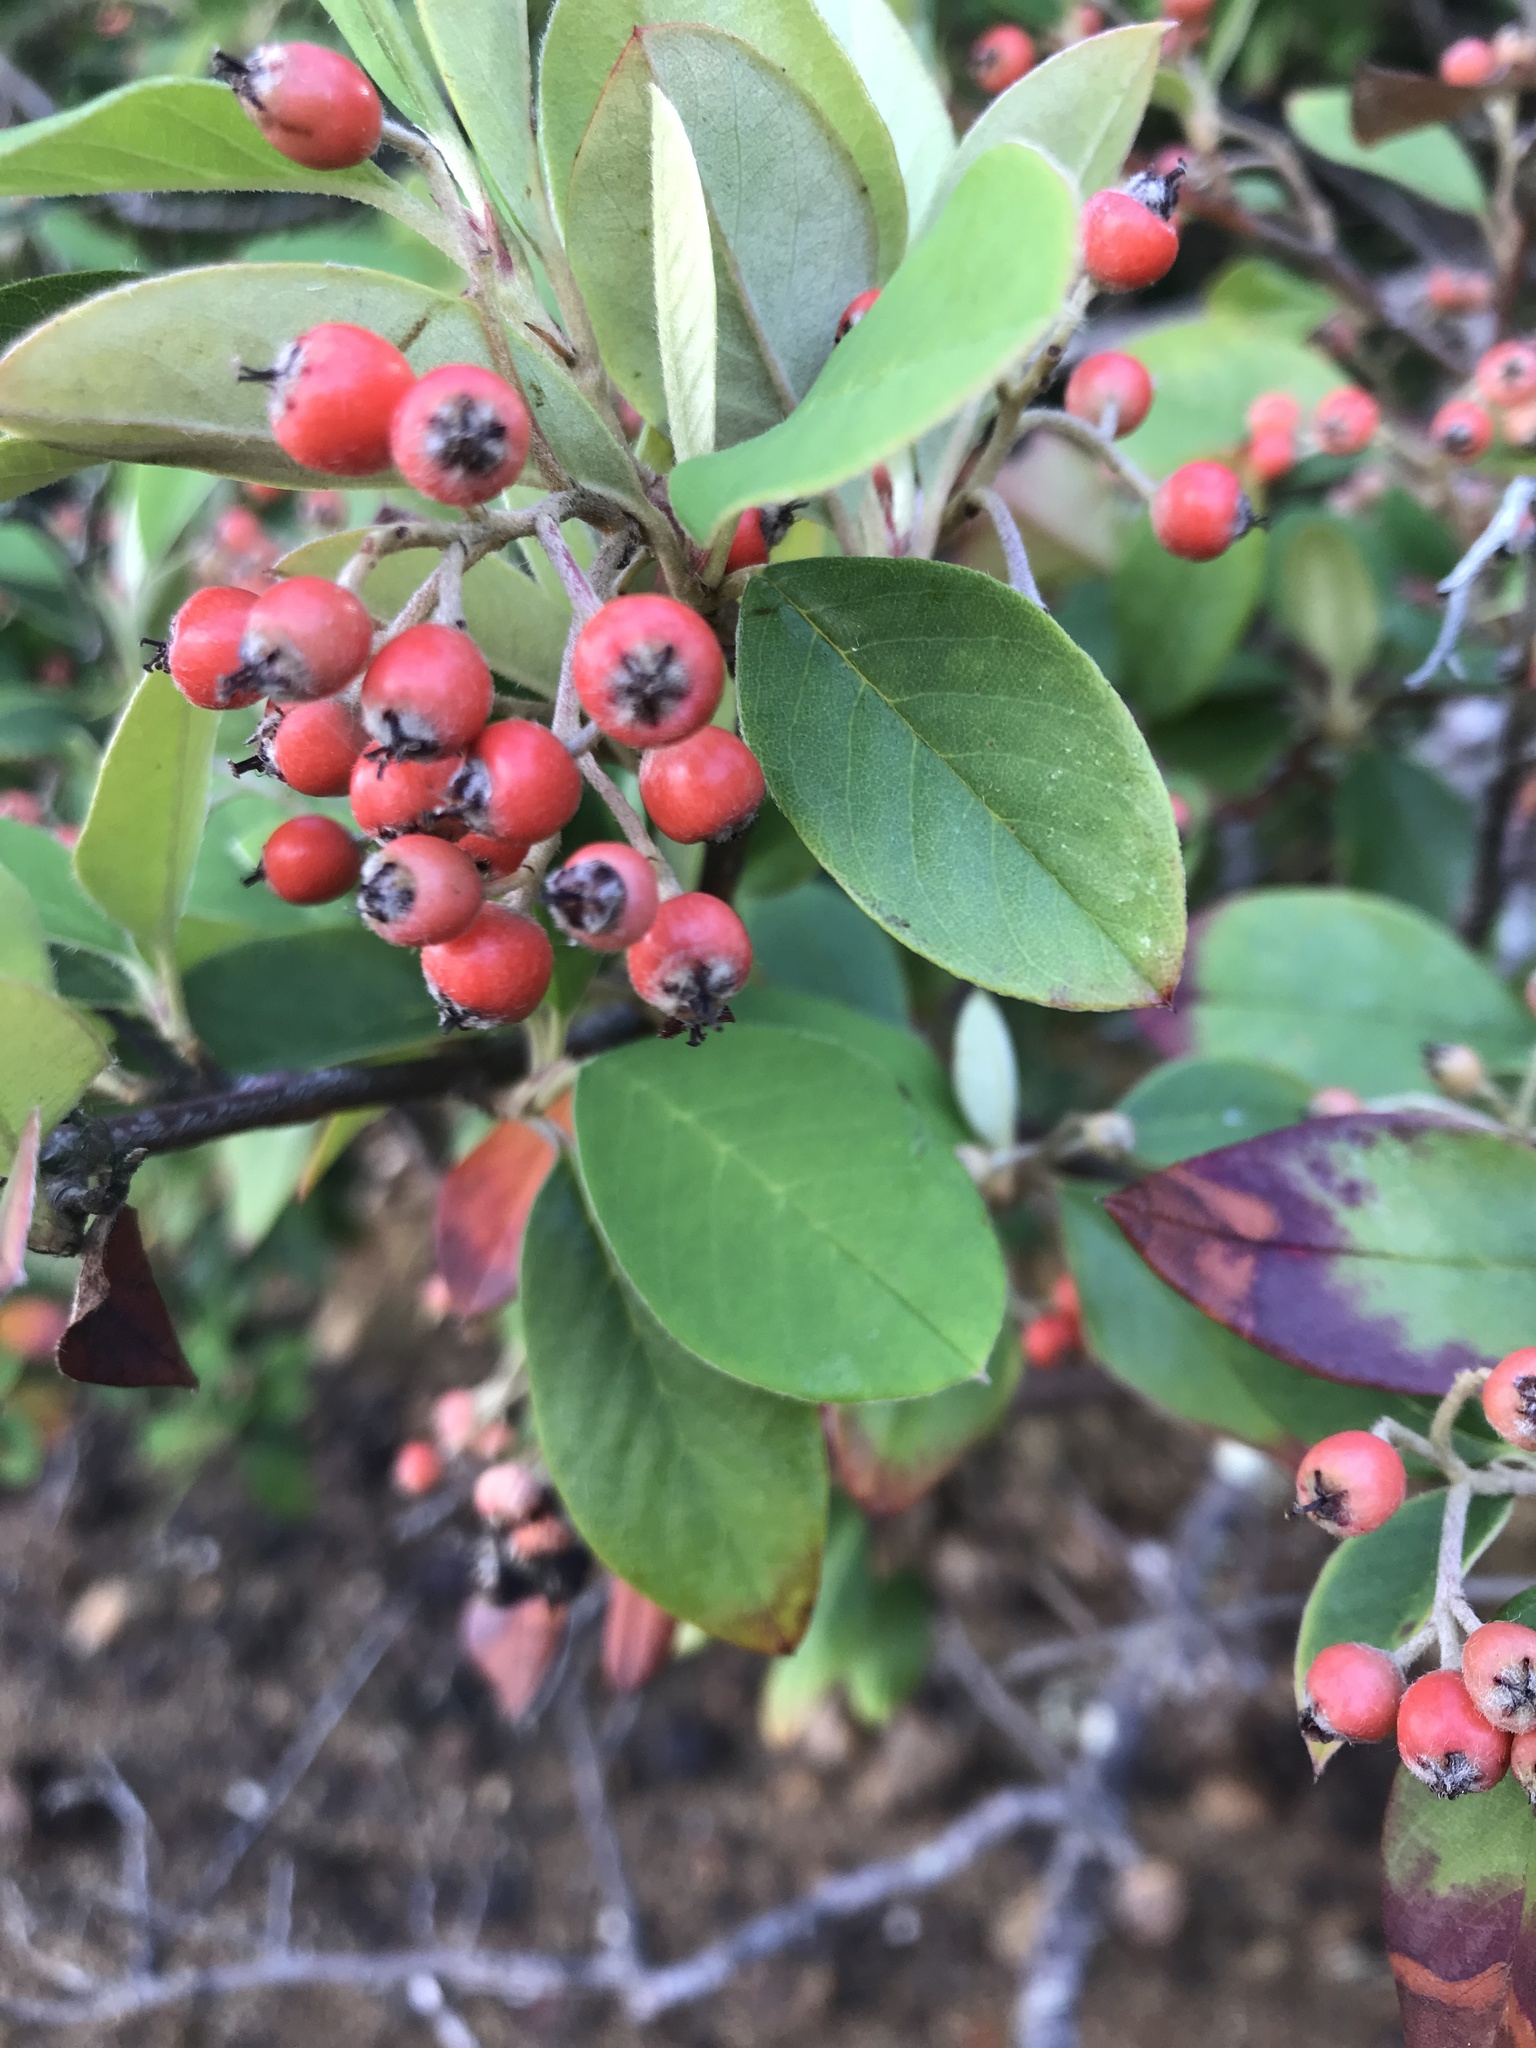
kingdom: Plantae
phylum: Tracheophyta
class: Magnoliopsida
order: Rosales
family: Rosaceae
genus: Cotoneaster
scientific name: Cotoneaster glaucophyllus
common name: Glaucous cotoneaster
